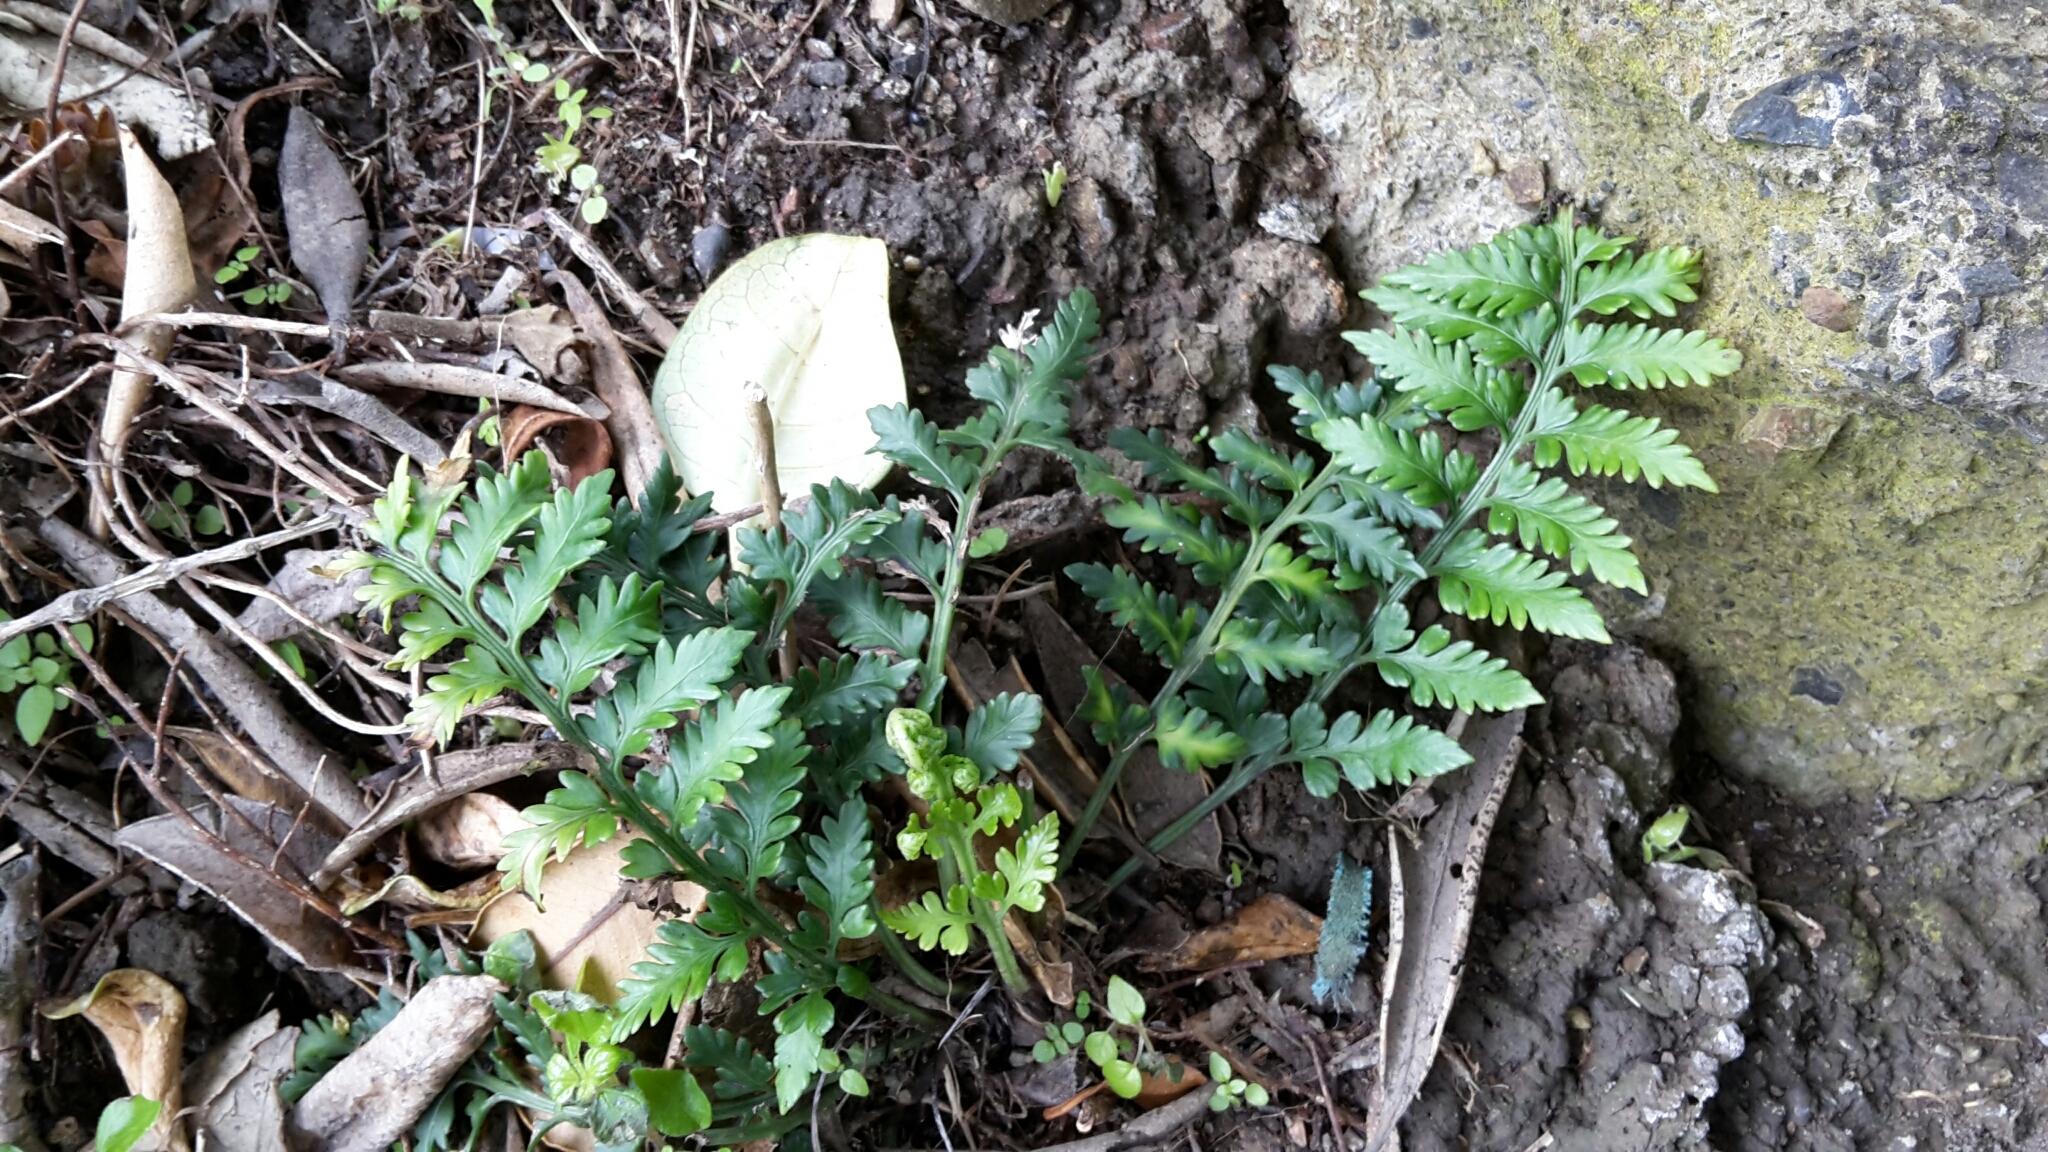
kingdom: Plantae
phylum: Tracheophyta
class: Polypodiopsida
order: Polypodiales
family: Aspleniaceae
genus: Asplenium
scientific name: Asplenium appendiculatum
